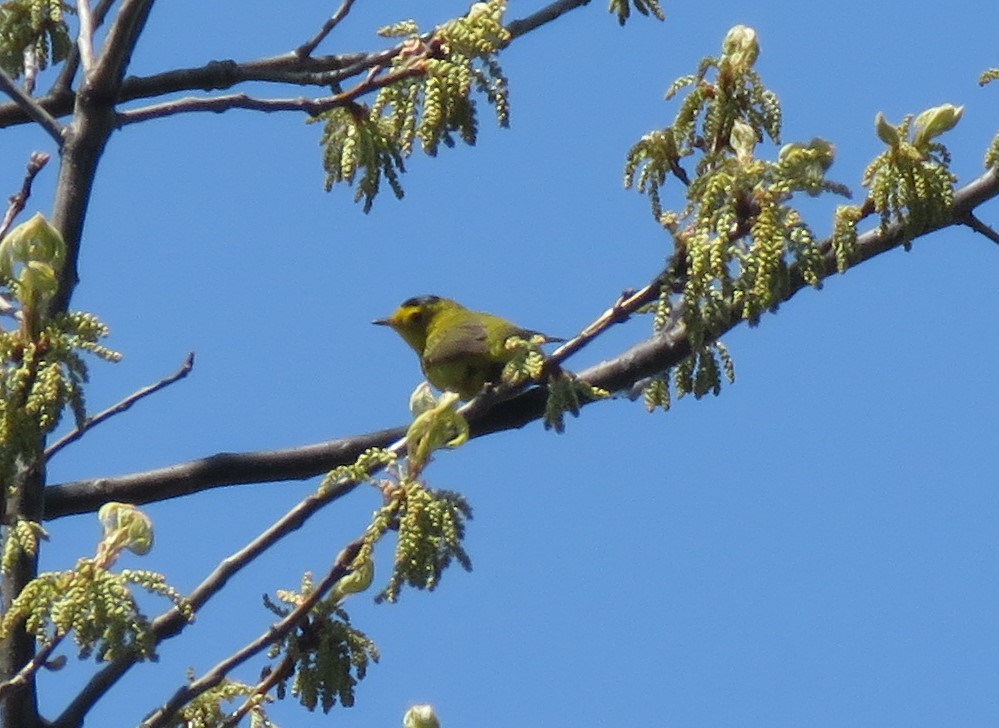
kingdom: Animalia
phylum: Chordata
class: Aves
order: Passeriformes
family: Parulidae
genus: Cardellina
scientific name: Cardellina pusilla
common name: Wilson's warbler
